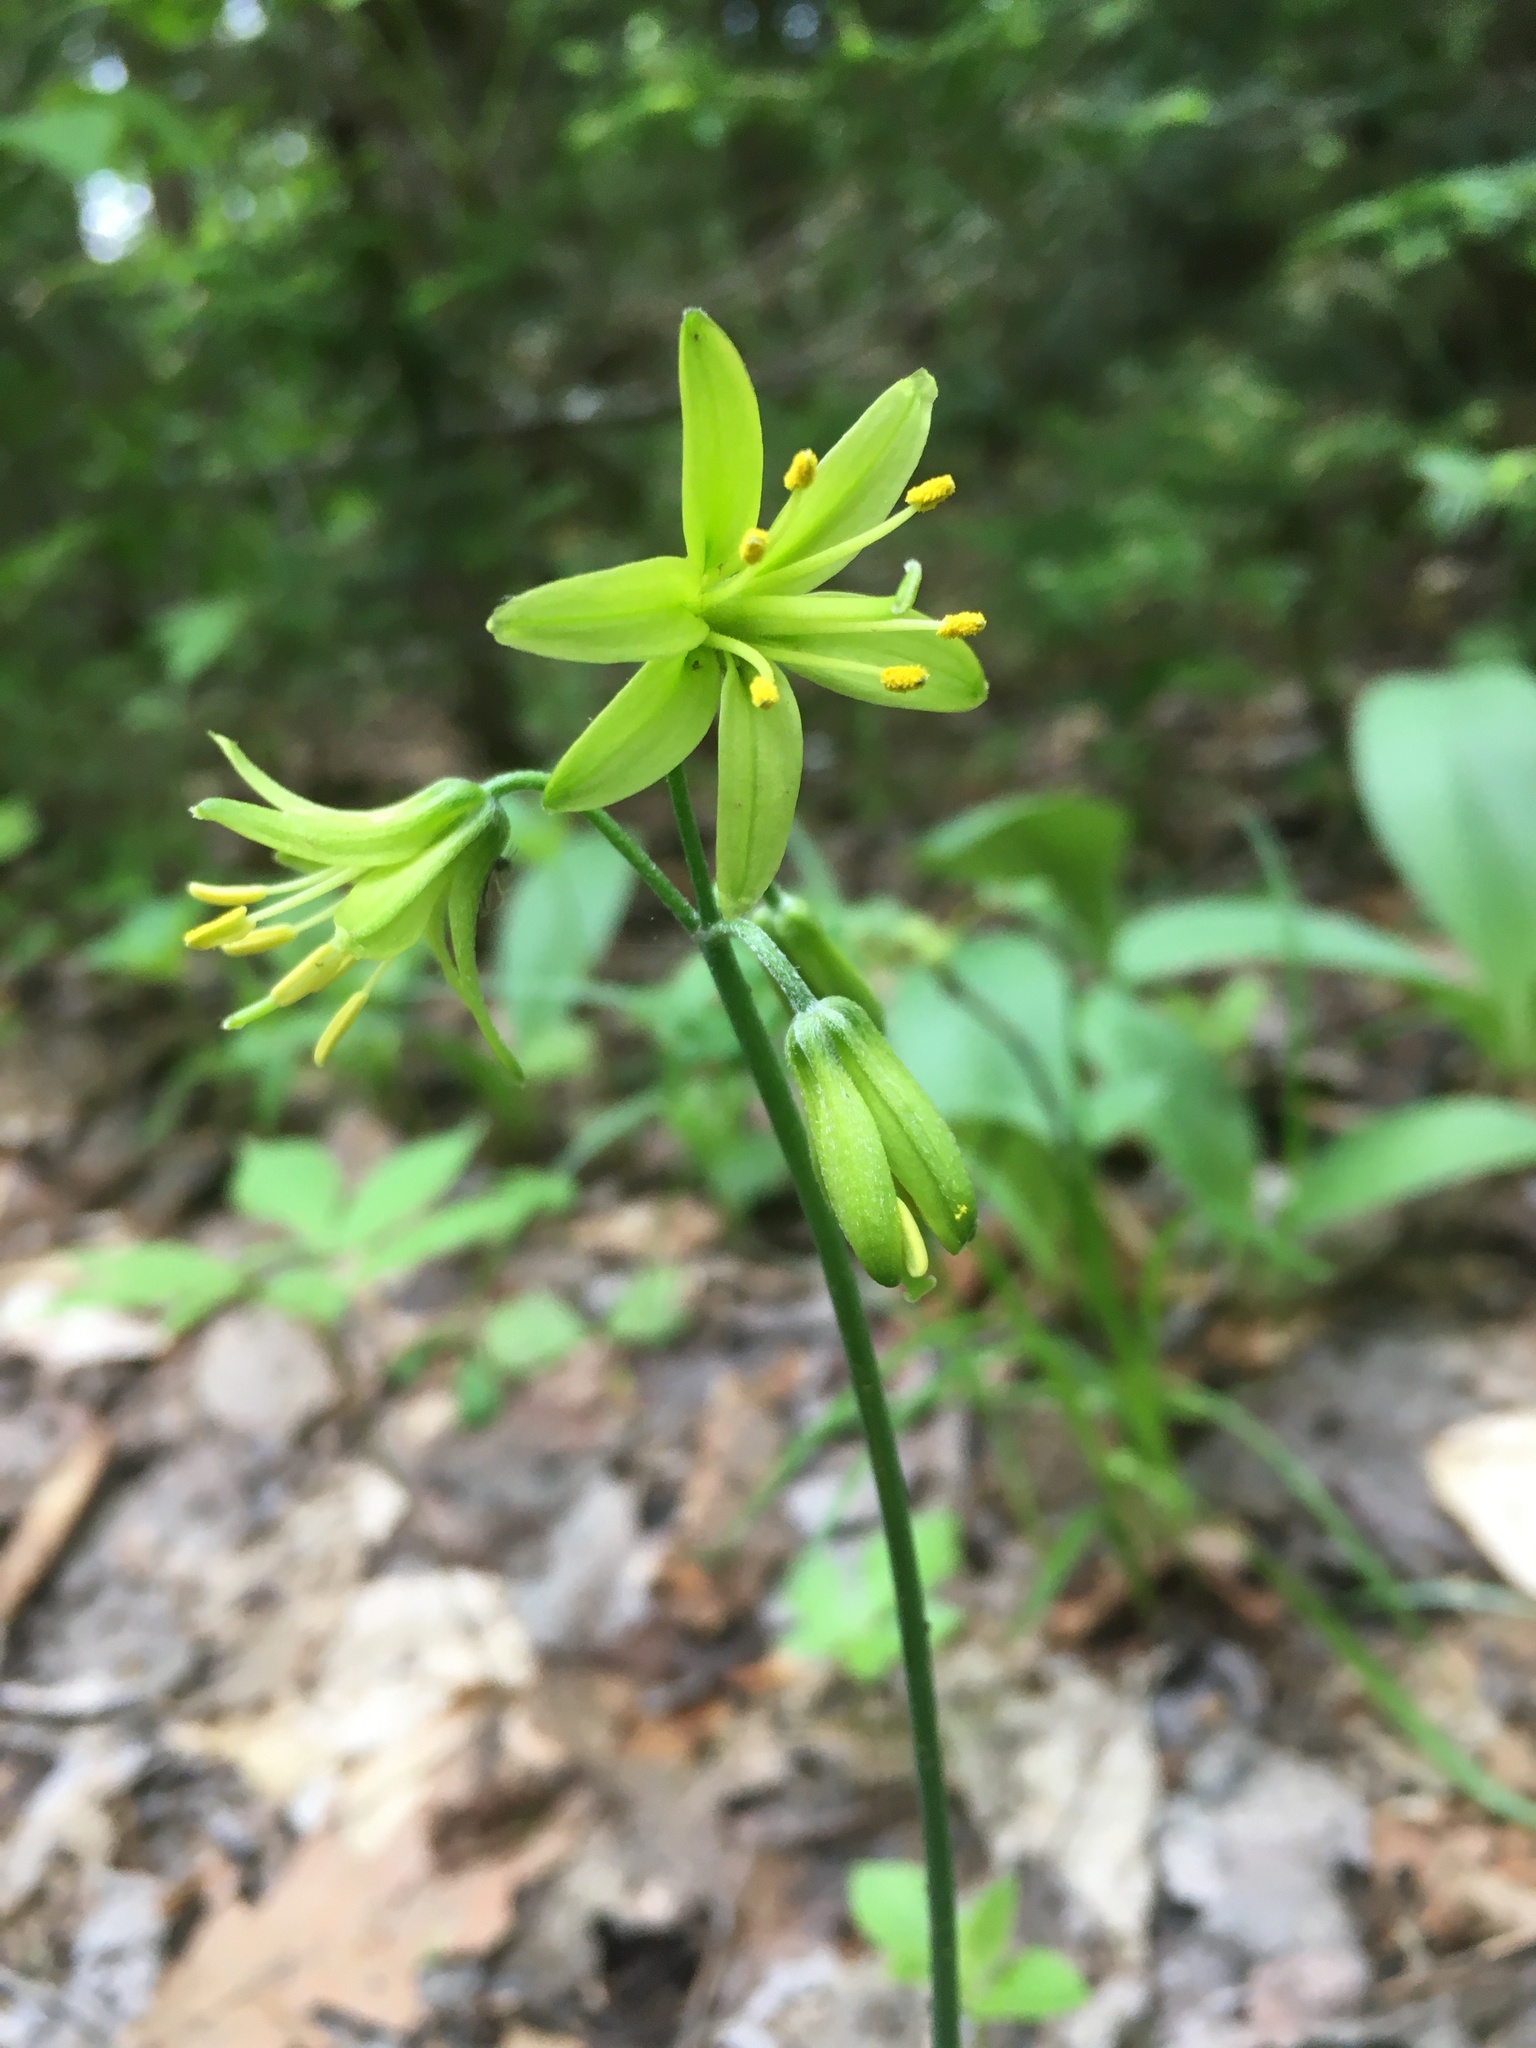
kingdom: Plantae
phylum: Tracheophyta
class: Liliopsida
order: Liliales
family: Liliaceae
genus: Clintonia
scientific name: Clintonia borealis
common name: Yellow clintonia
